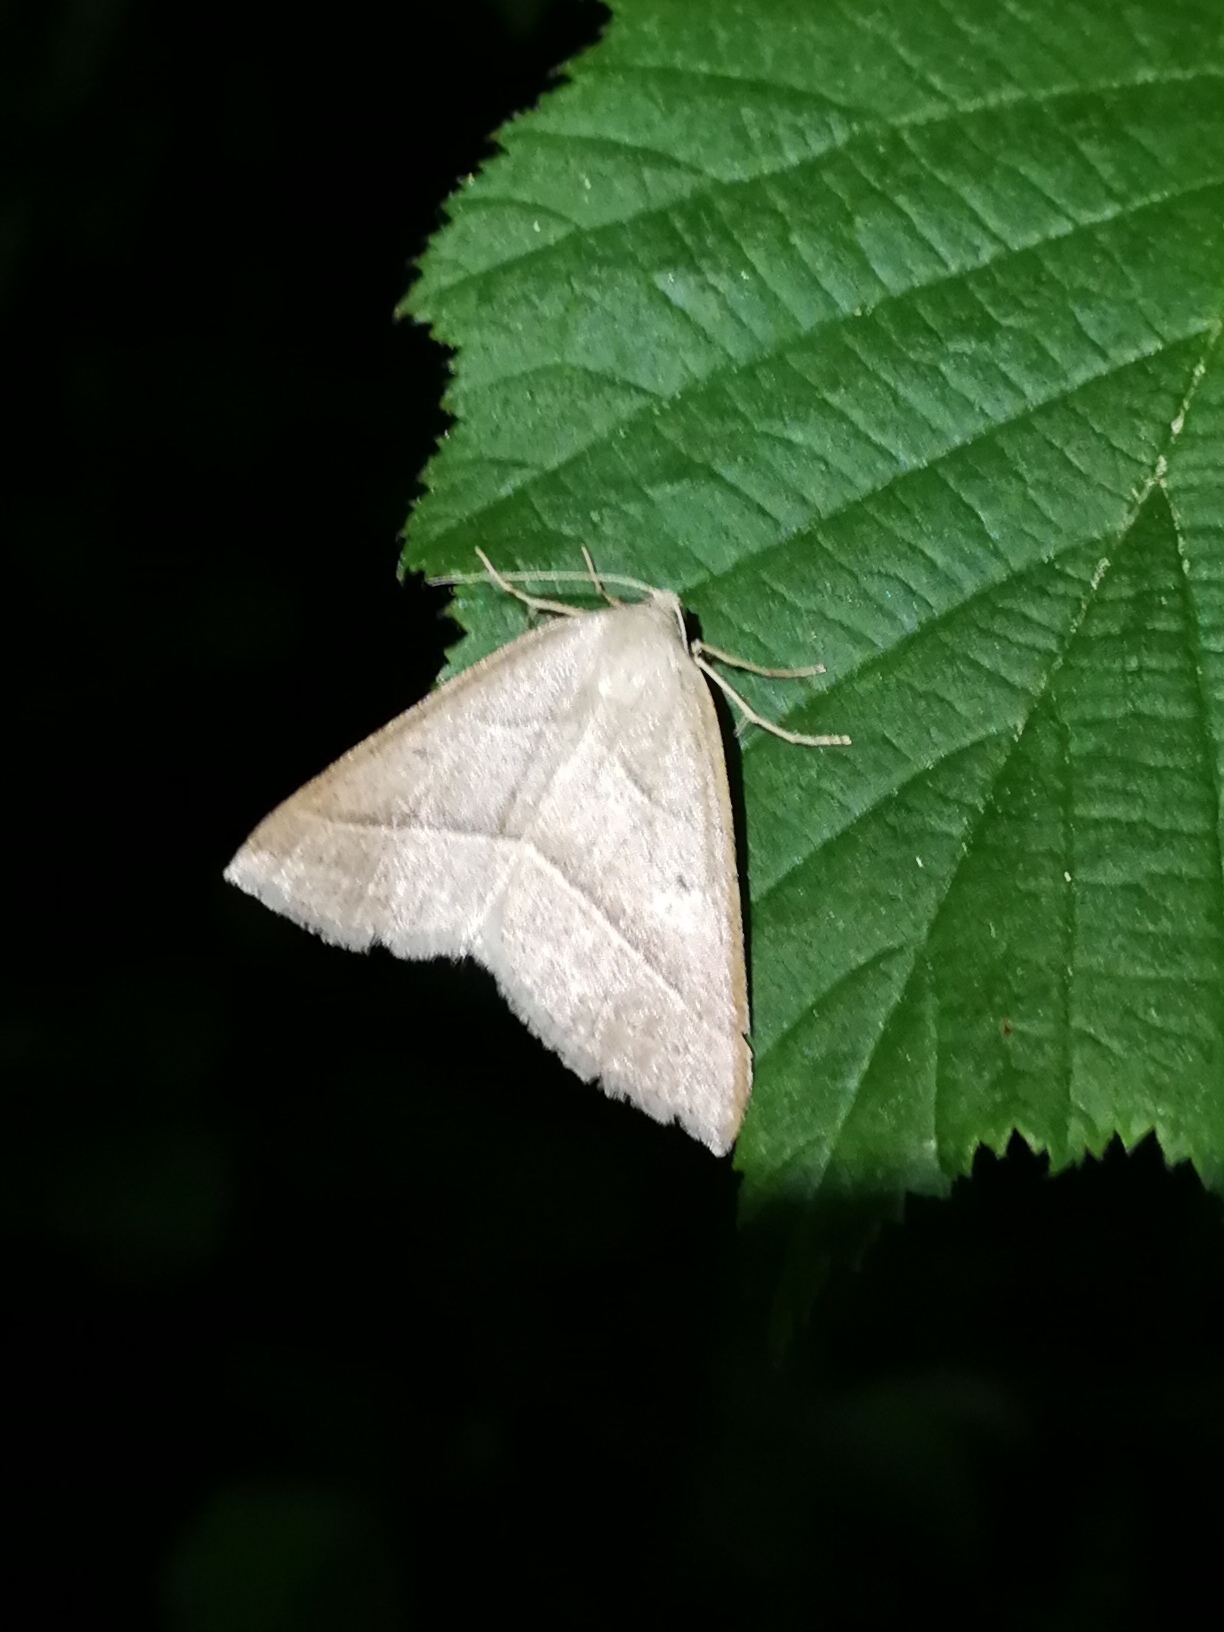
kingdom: Animalia
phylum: Arthropoda
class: Insecta
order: Lepidoptera
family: Pterophoridae
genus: Pterophorus
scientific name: Pterophorus Petrophora chlorosata
